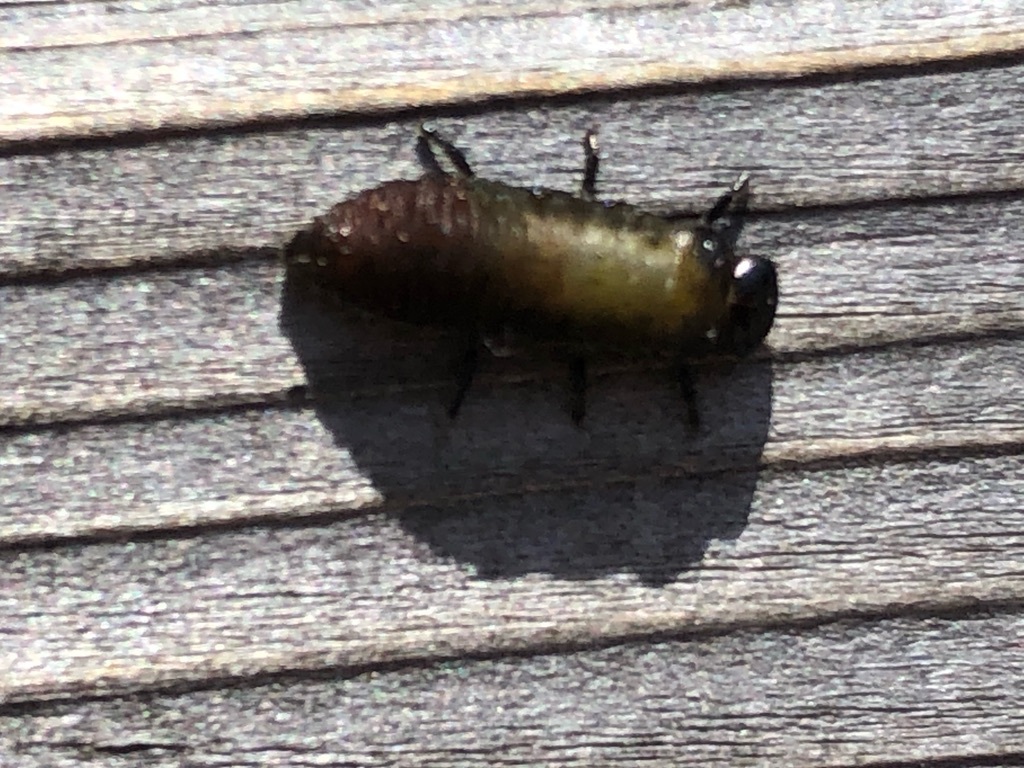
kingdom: Animalia
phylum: Arthropoda
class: Insecta
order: Coleoptera
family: Chrysomelidae
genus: Trachymela
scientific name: Trachymela sloanei
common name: Australian tortoise beetle
